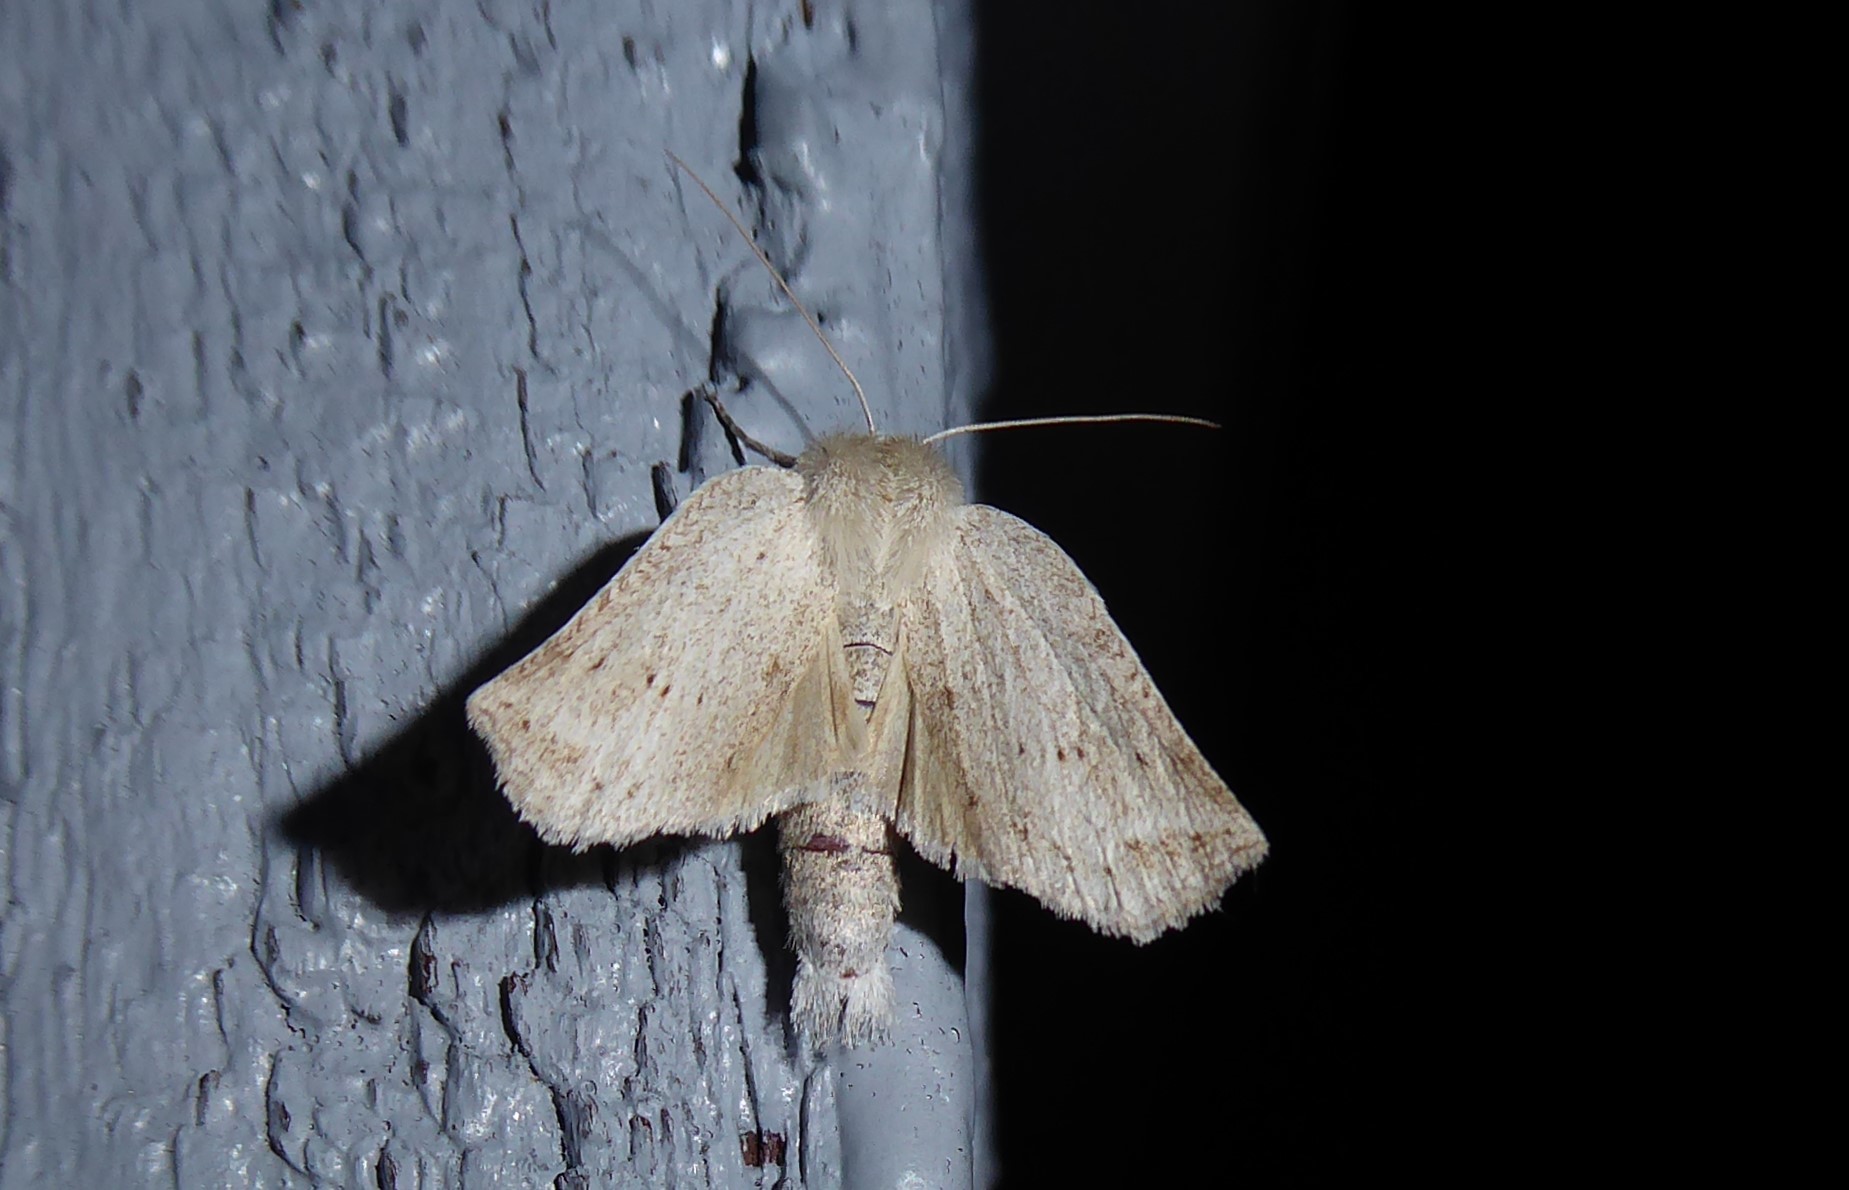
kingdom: Animalia
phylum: Arthropoda
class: Insecta
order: Lepidoptera
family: Geometridae
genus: Declana
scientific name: Declana leptomera
